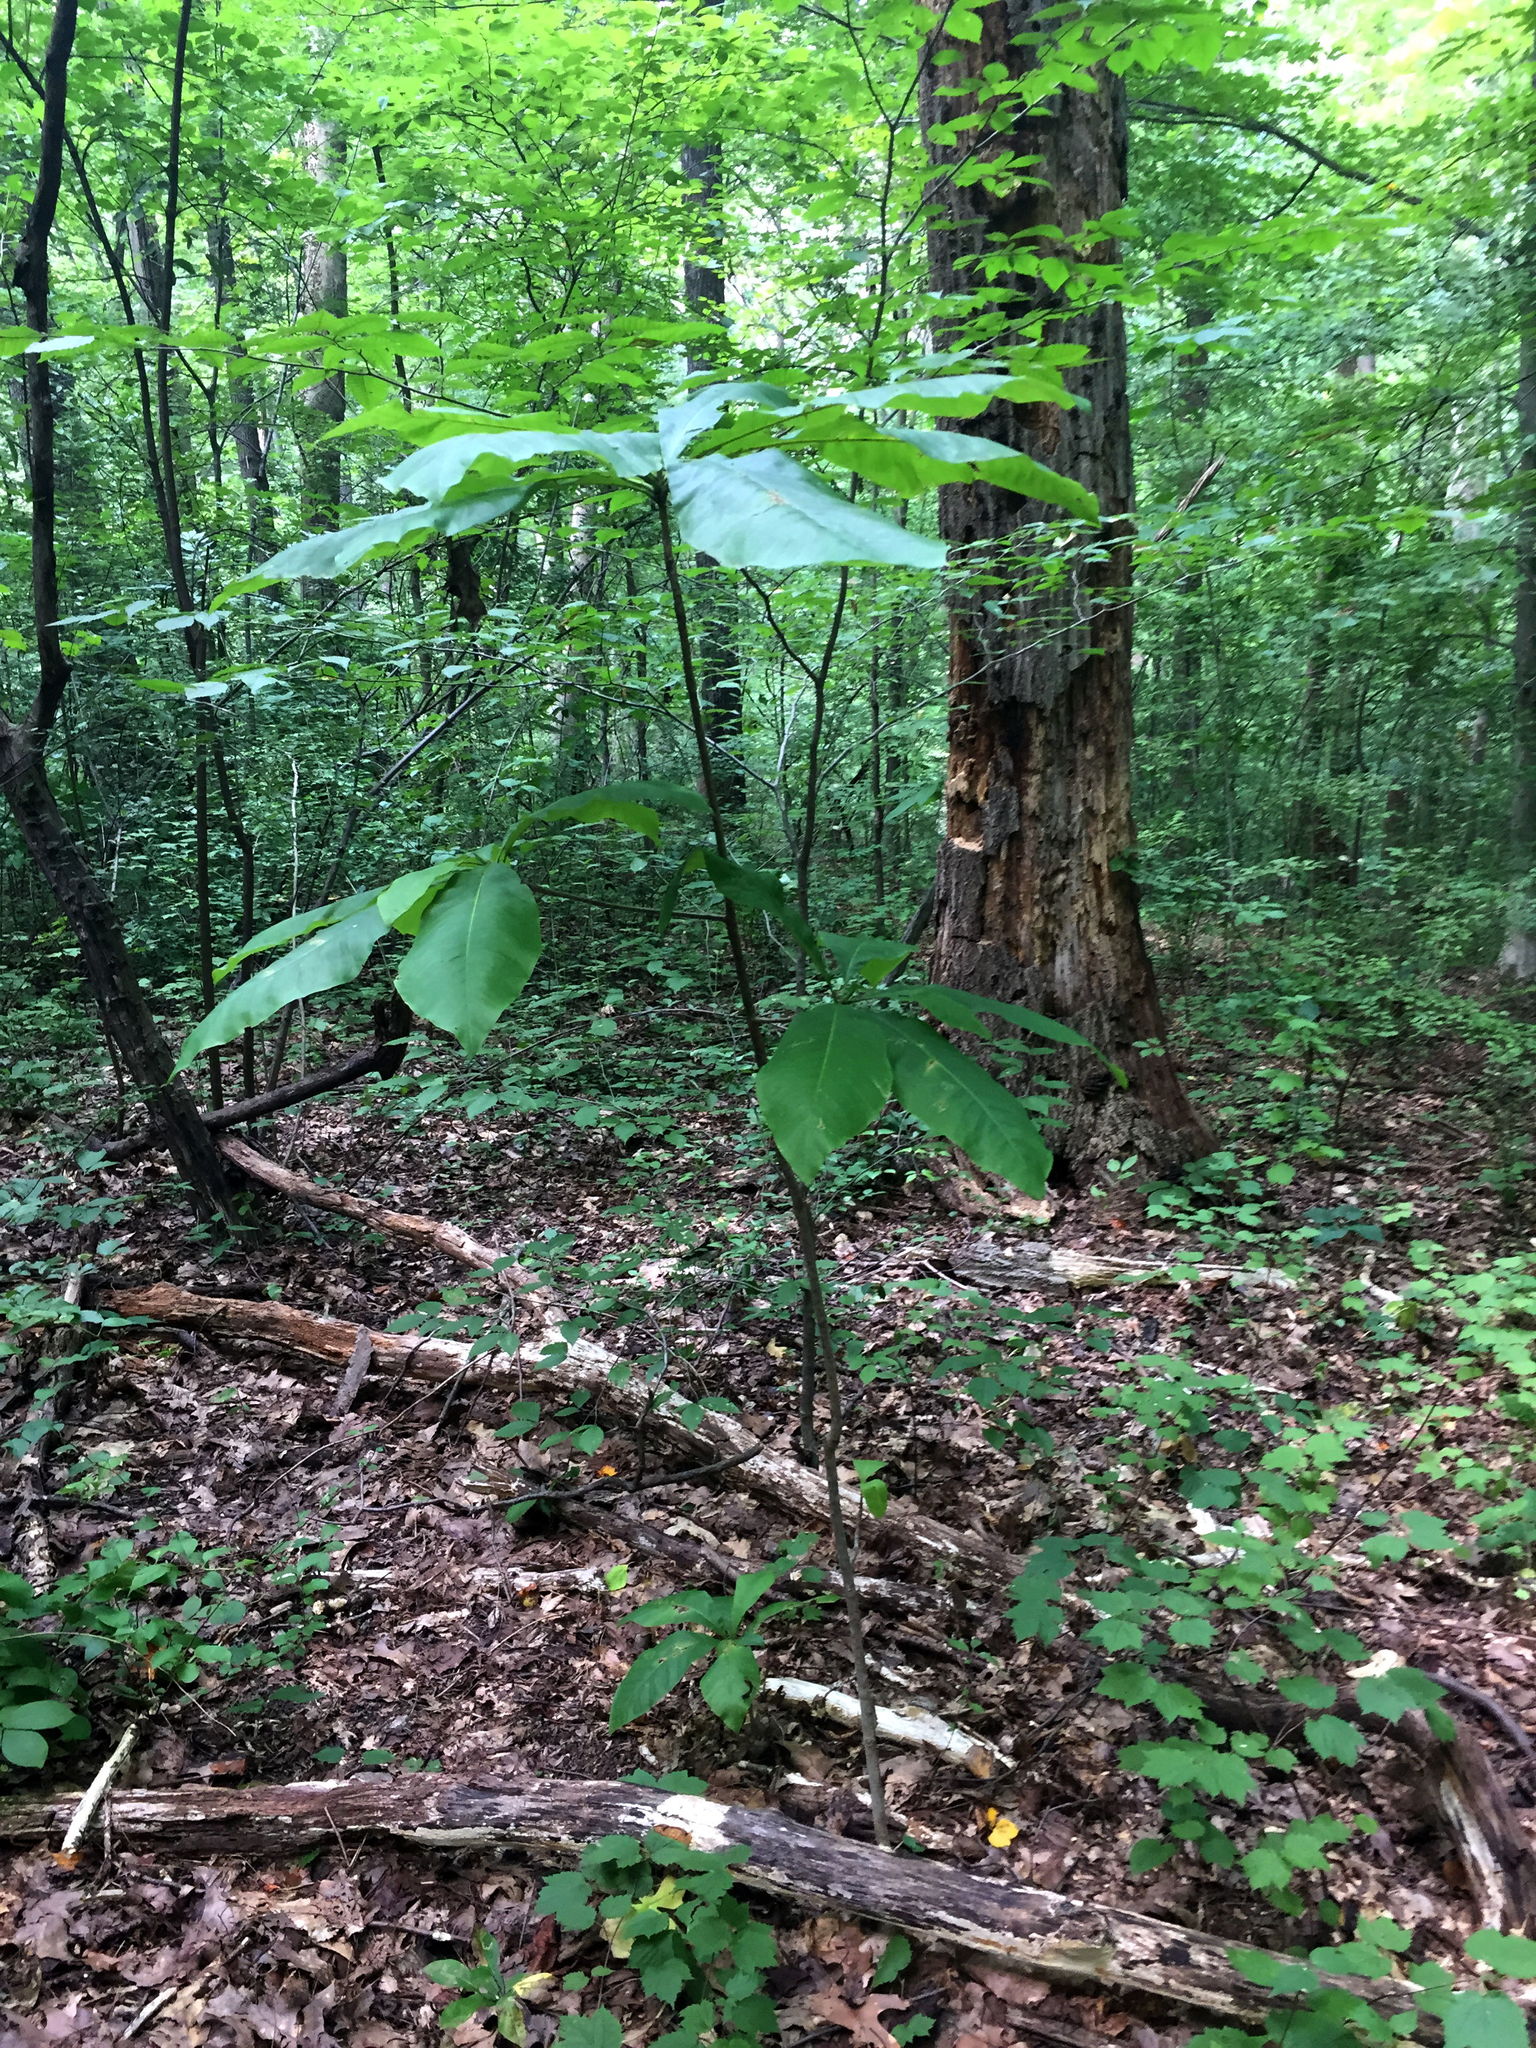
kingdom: Plantae
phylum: Tracheophyta
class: Magnoliopsida
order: Magnoliales
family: Magnoliaceae
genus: Magnolia
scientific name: Magnolia tripetala
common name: Umbrella magnolia
